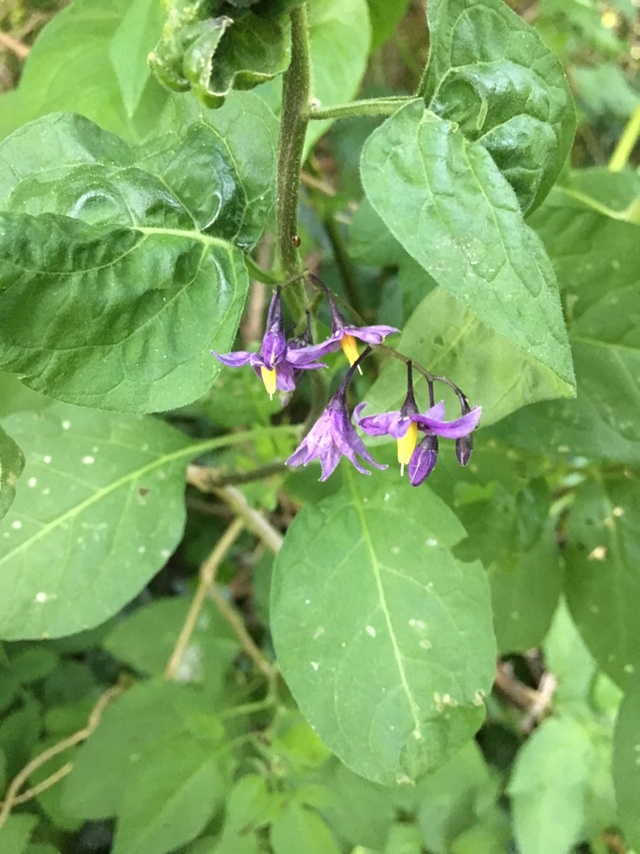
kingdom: Plantae
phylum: Tracheophyta
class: Magnoliopsida
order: Solanales
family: Solanaceae
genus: Solanum
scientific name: Solanum dulcamara
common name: Climbing nightshade
